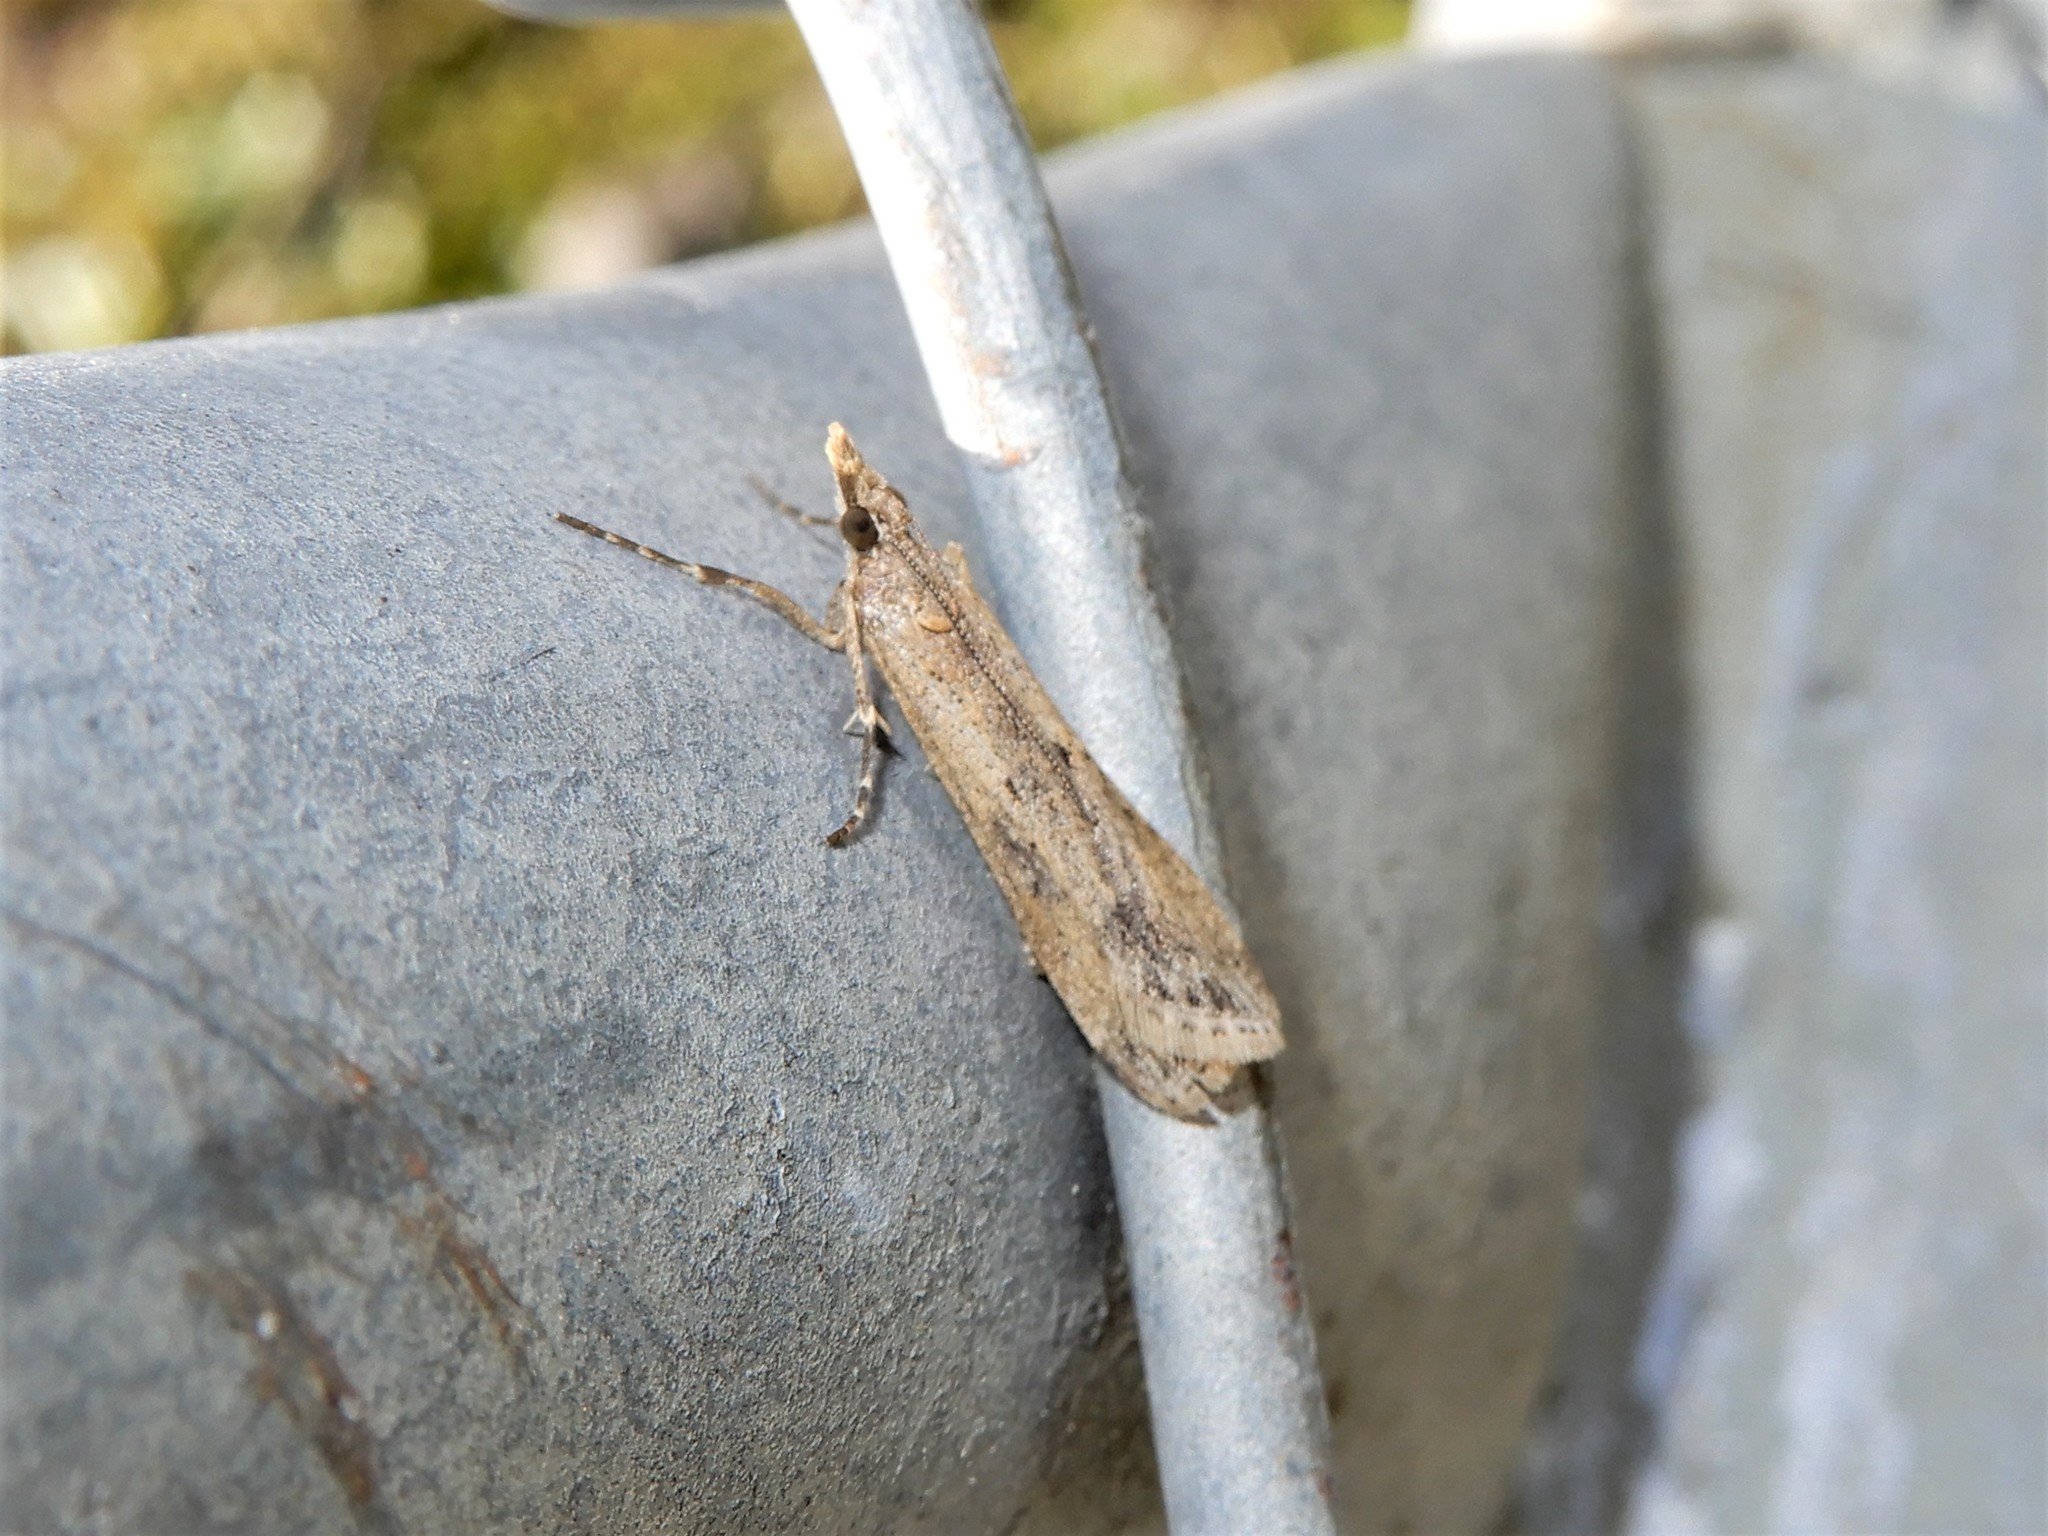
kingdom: Animalia
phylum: Arthropoda
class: Insecta
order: Lepidoptera
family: Crambidae
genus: Eudonia
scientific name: Eudonia leptalea
